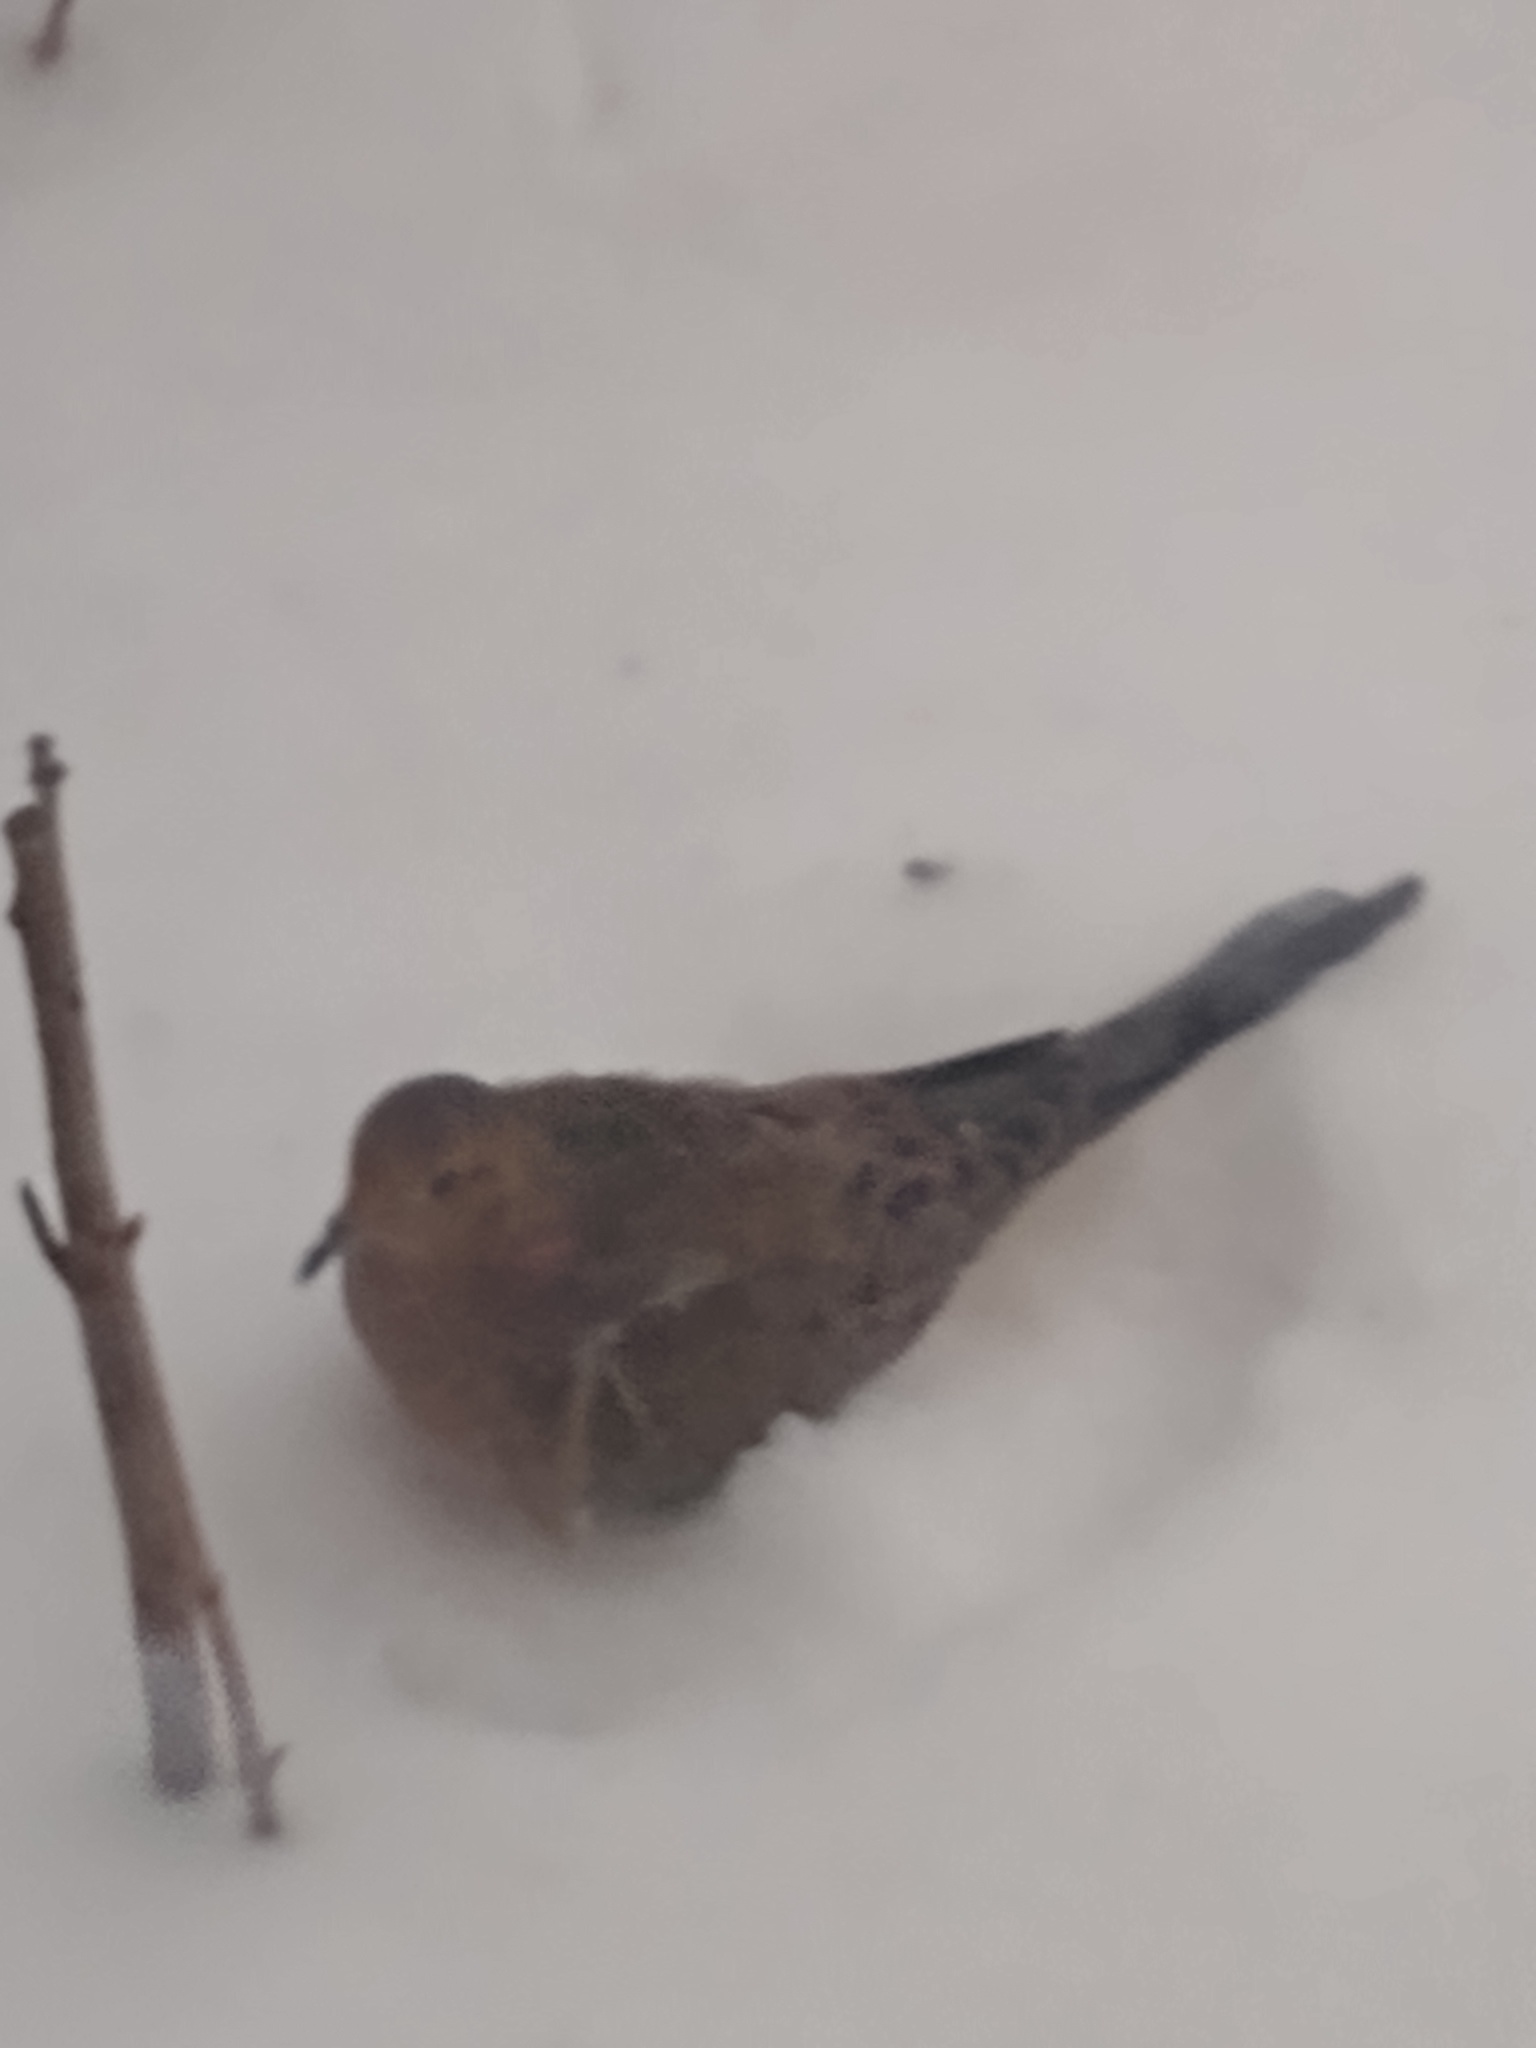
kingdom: Animalia
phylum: Chordata
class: Aves
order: Columbiformes
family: Columbidae
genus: Zenaida
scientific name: Zenaida macroura
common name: Mourning dove
